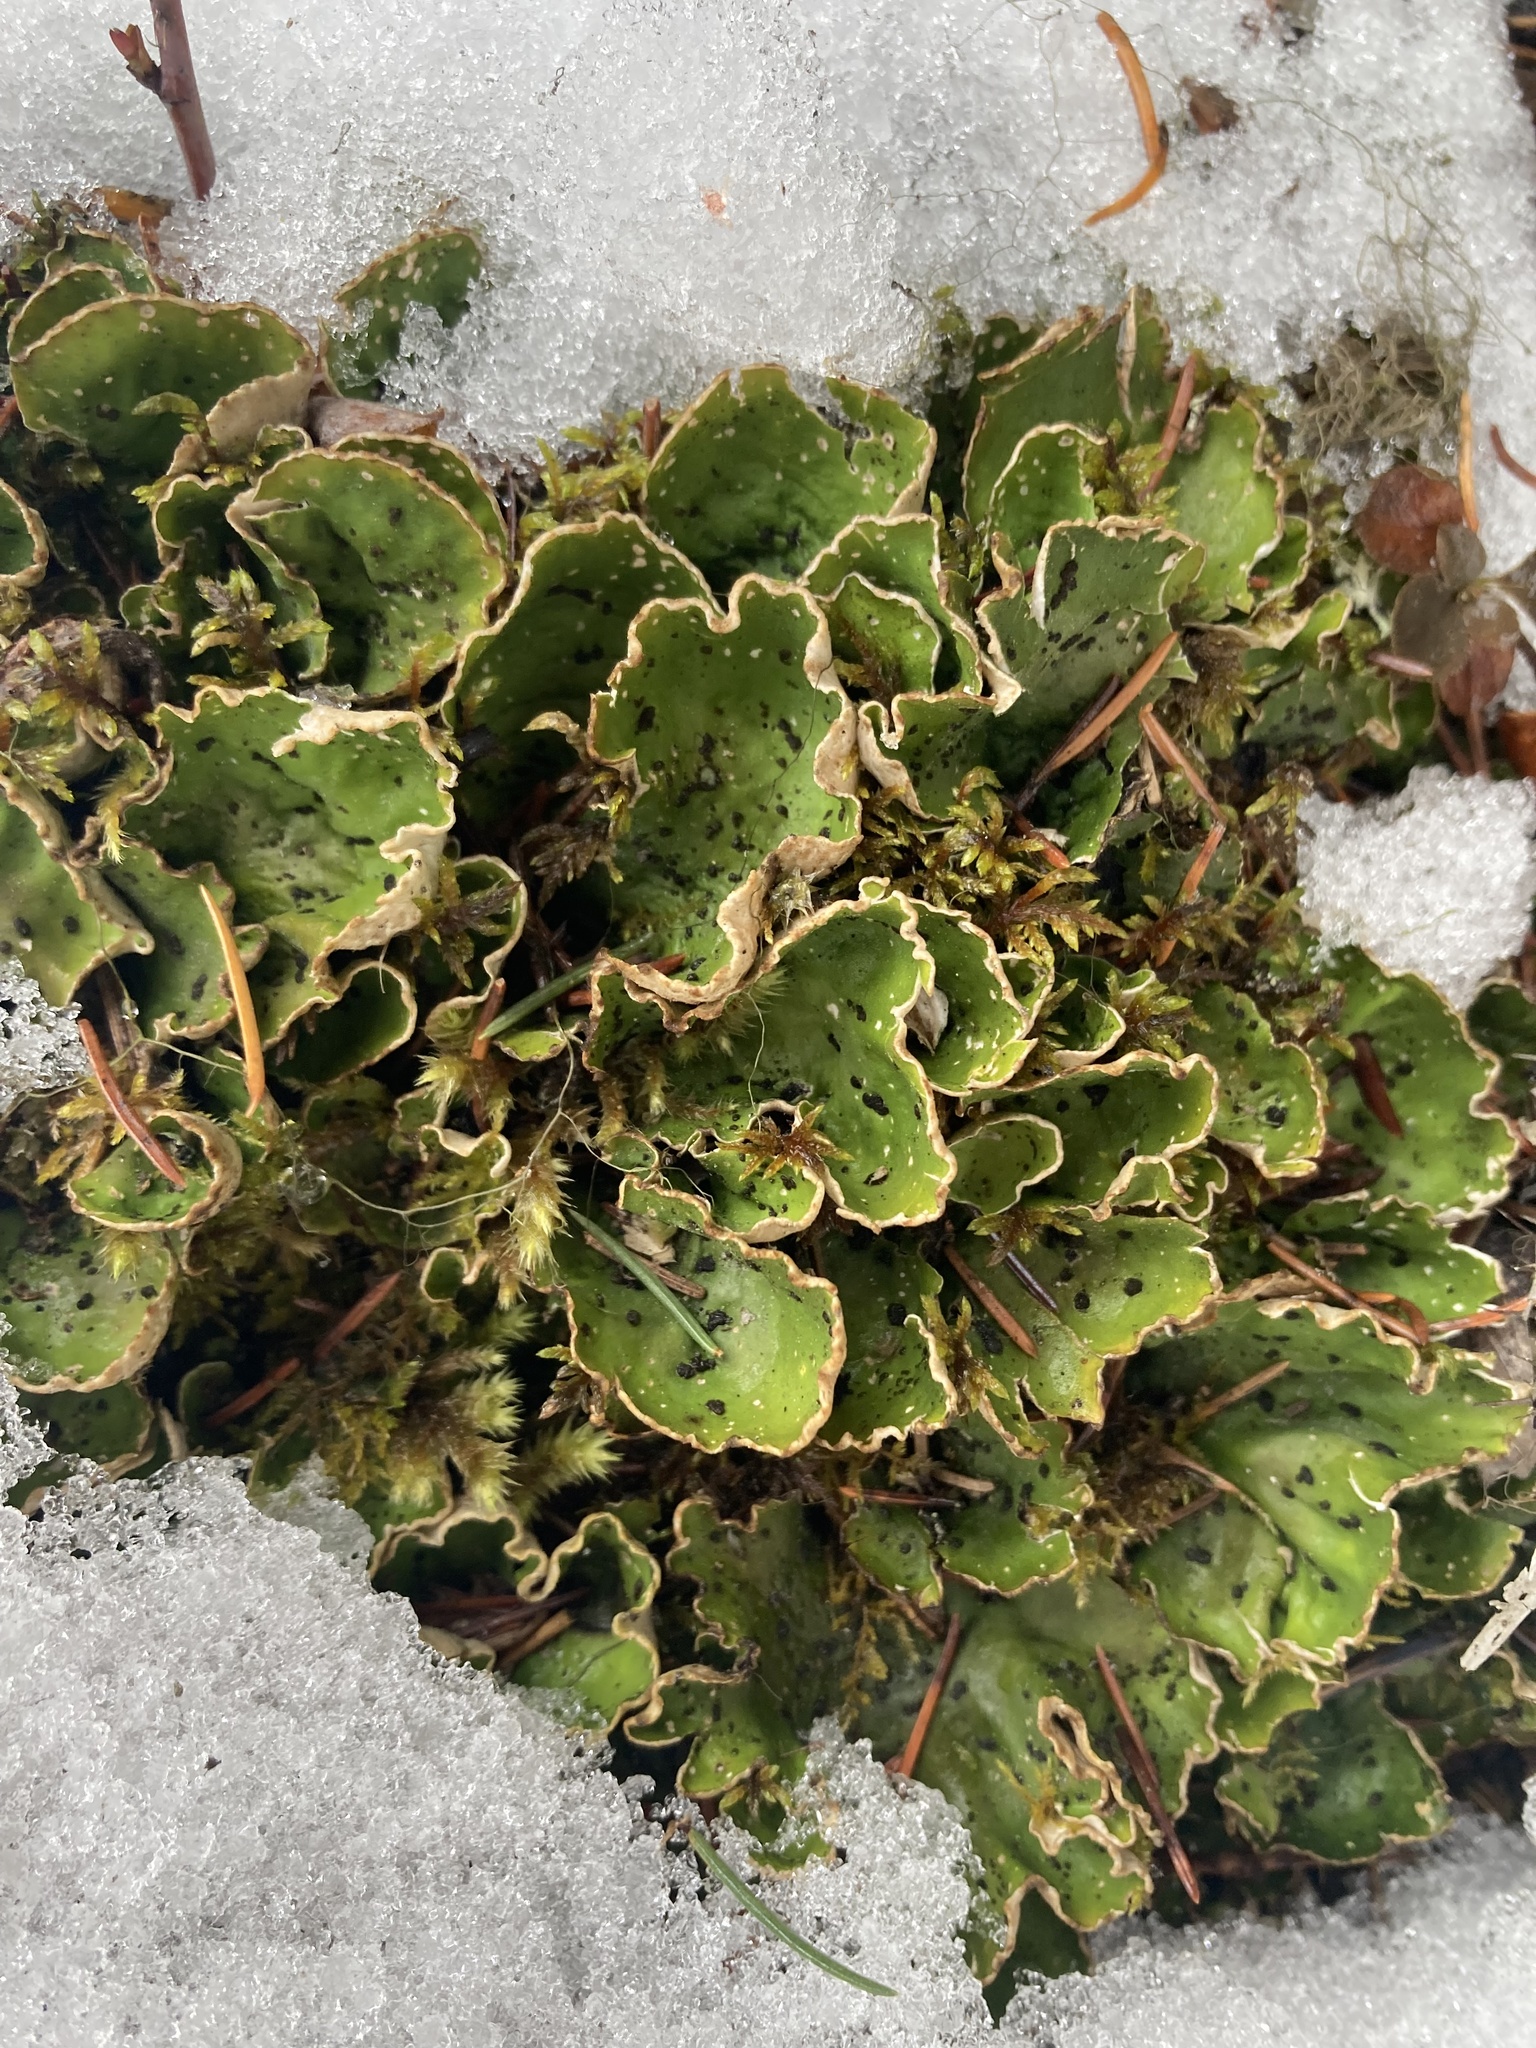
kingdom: Fungi
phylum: Ascomycota
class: Lecanoromycetes
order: Peltigerales
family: Peltigeraceae
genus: Peltigera
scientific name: Peltigera aphthosa
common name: Common freckle pelt lichen
